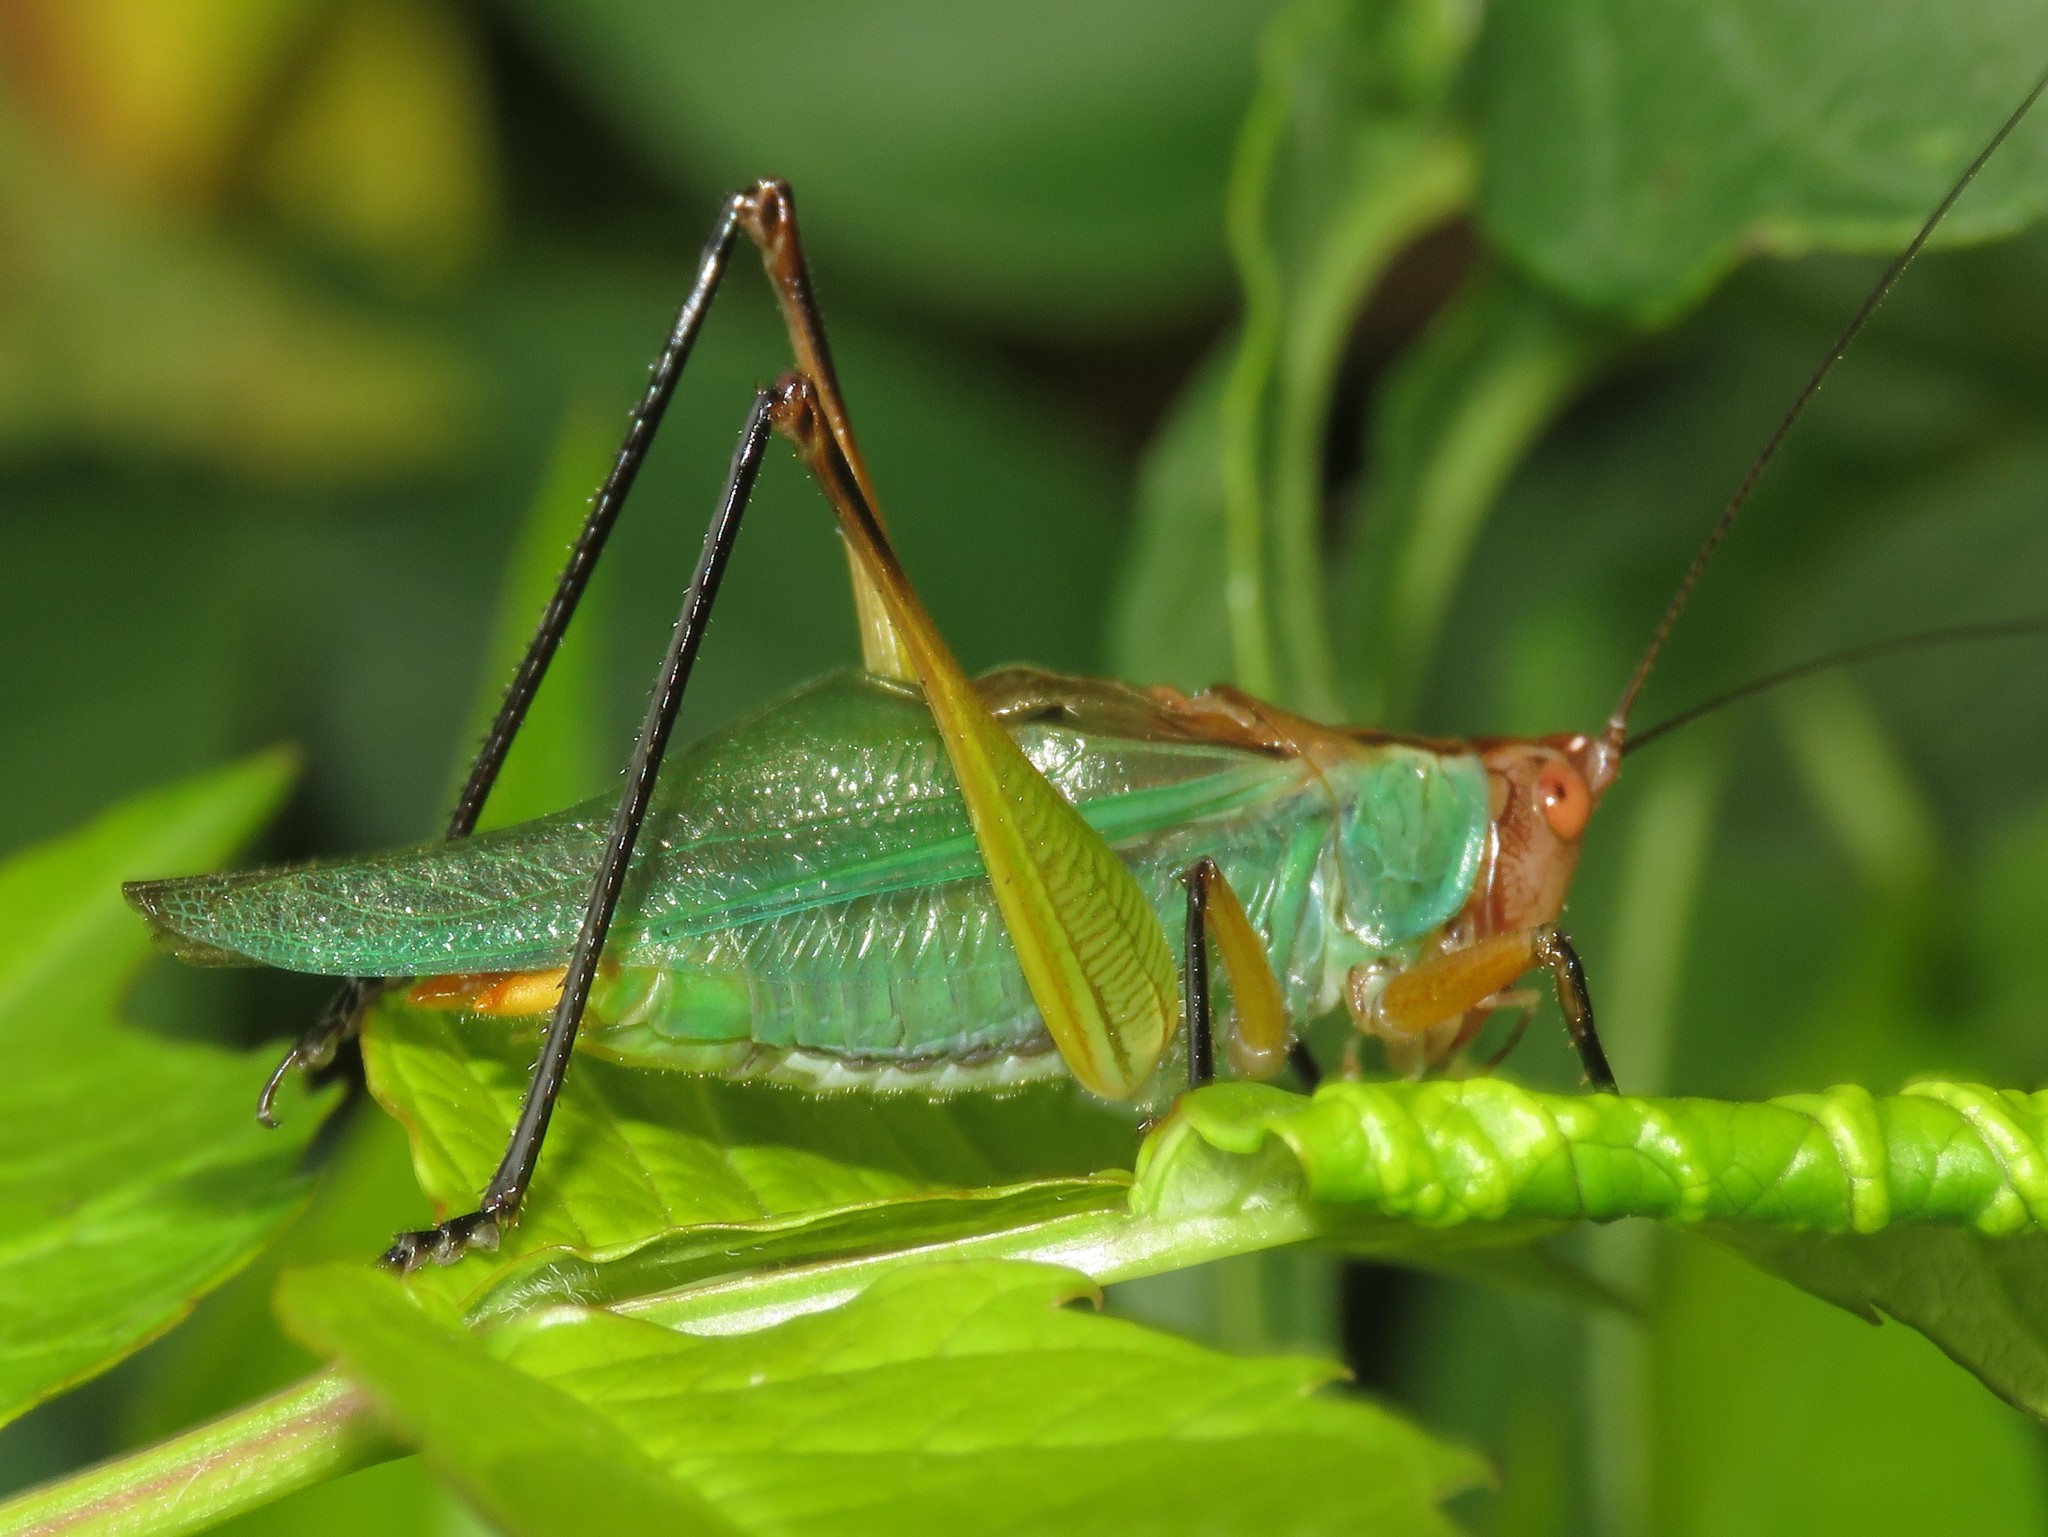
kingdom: Animalia
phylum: Arthropoda
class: Insecta
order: Orthoptera
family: Tettigoniidae
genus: Orchelimum
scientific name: Orchelimum nigripes
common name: Black-legged meadow katydid
